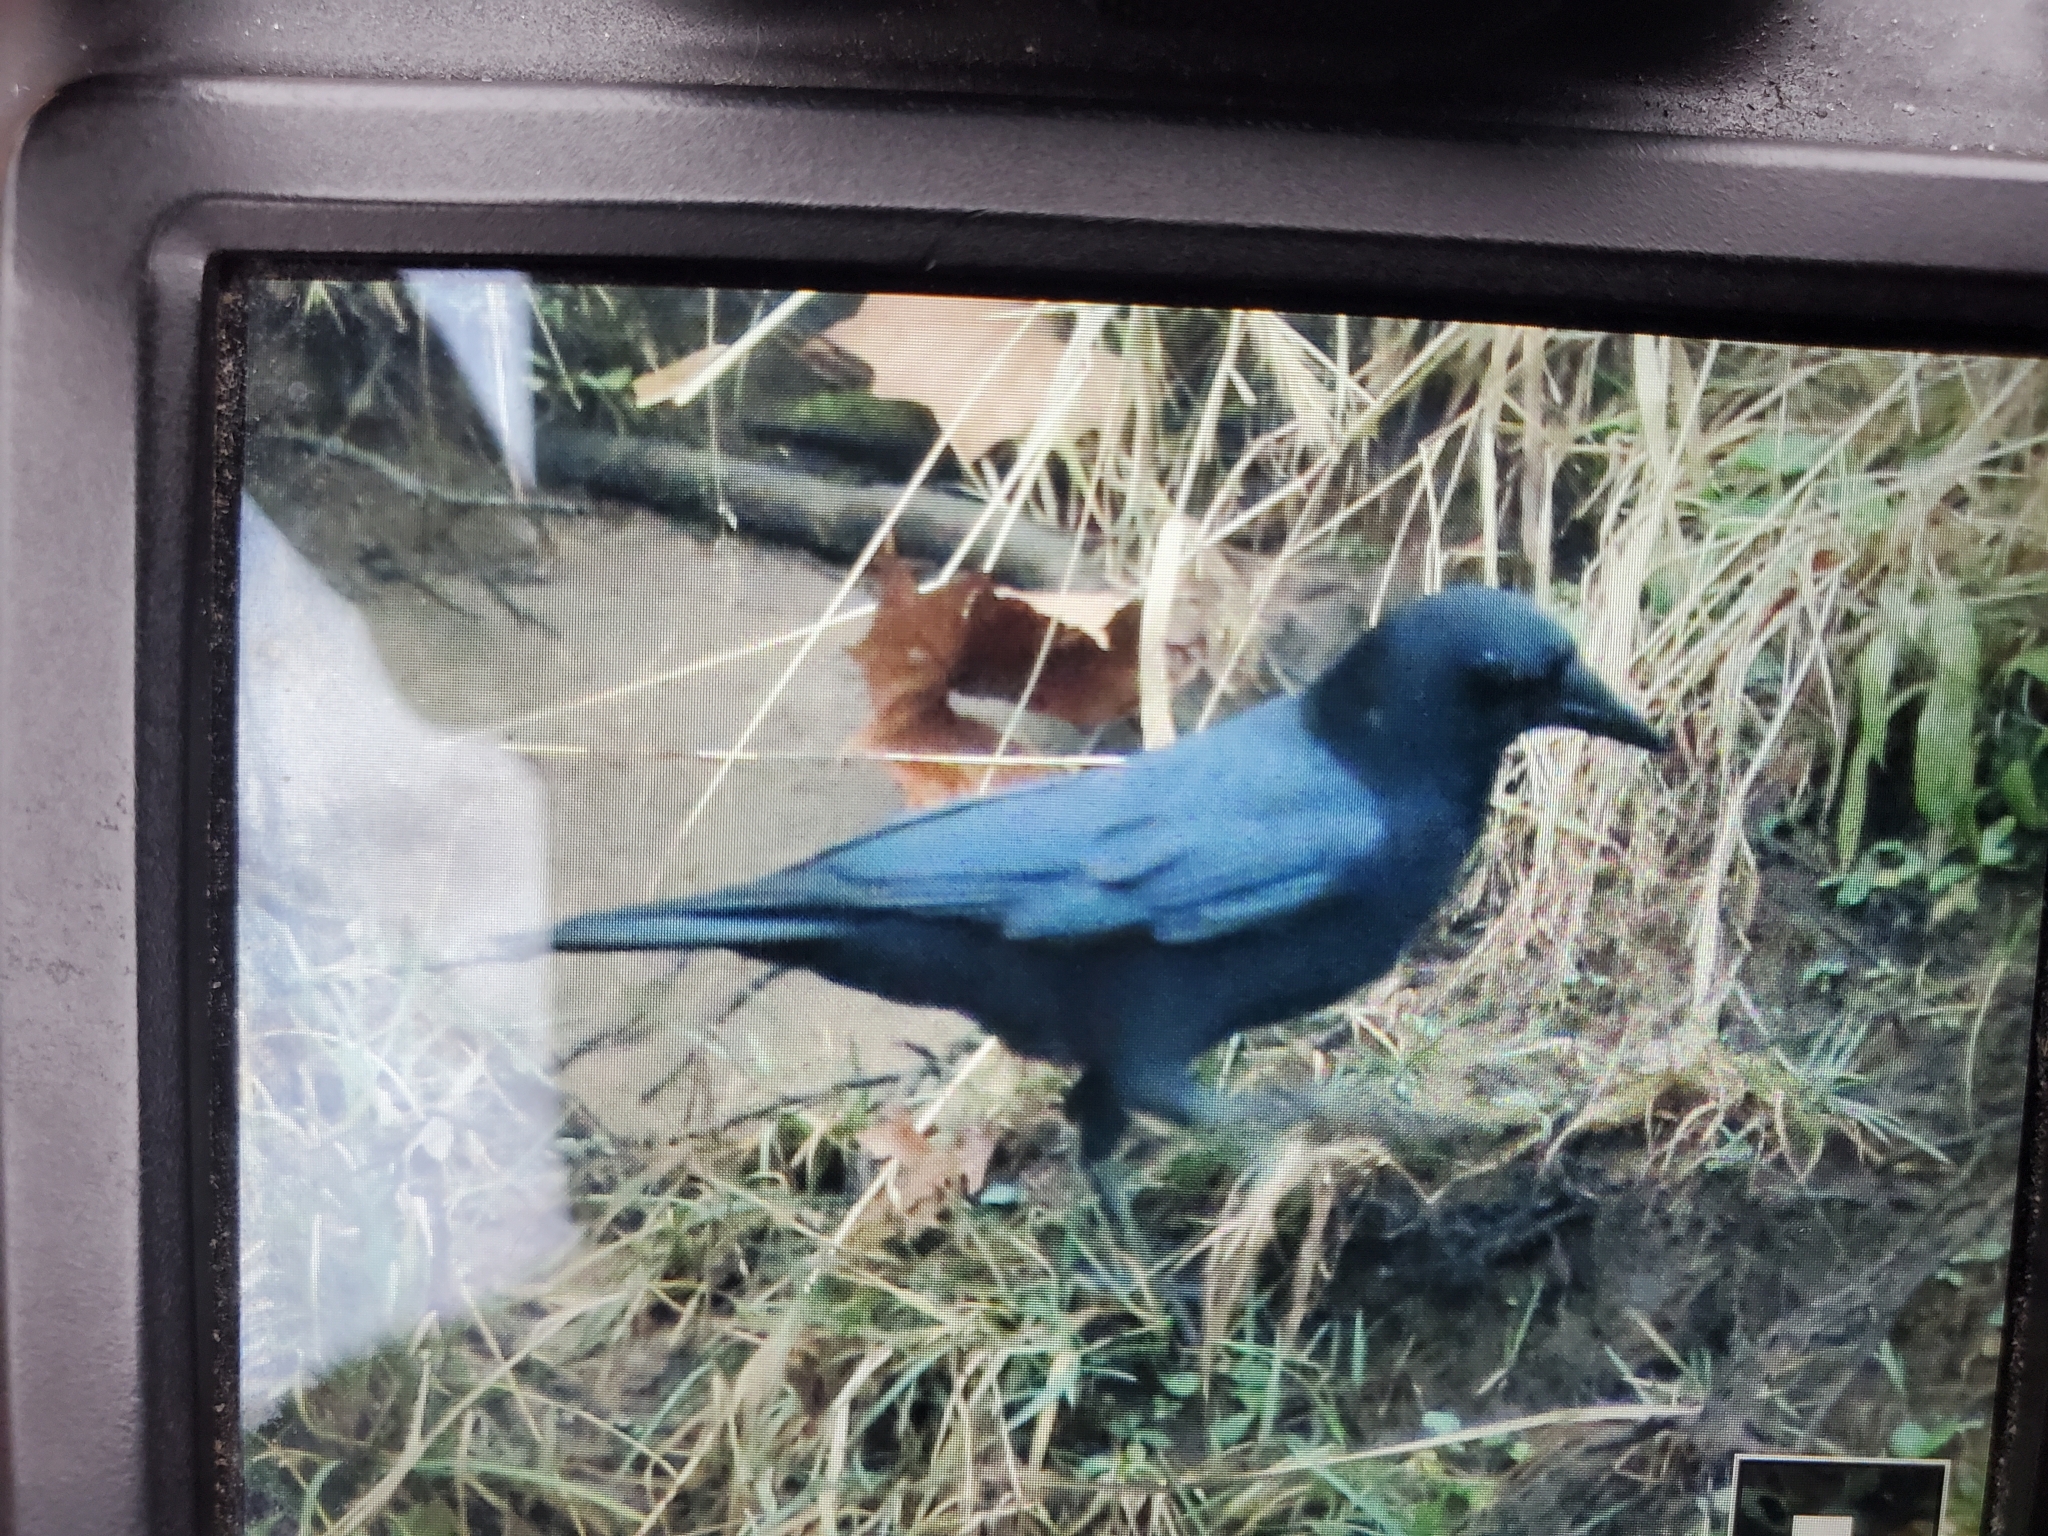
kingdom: Animalia
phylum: Chordata
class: Aves
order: Passeriformes
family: Corvidae
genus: Corvus
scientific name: Corvus brachyrhynchos
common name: American crow
